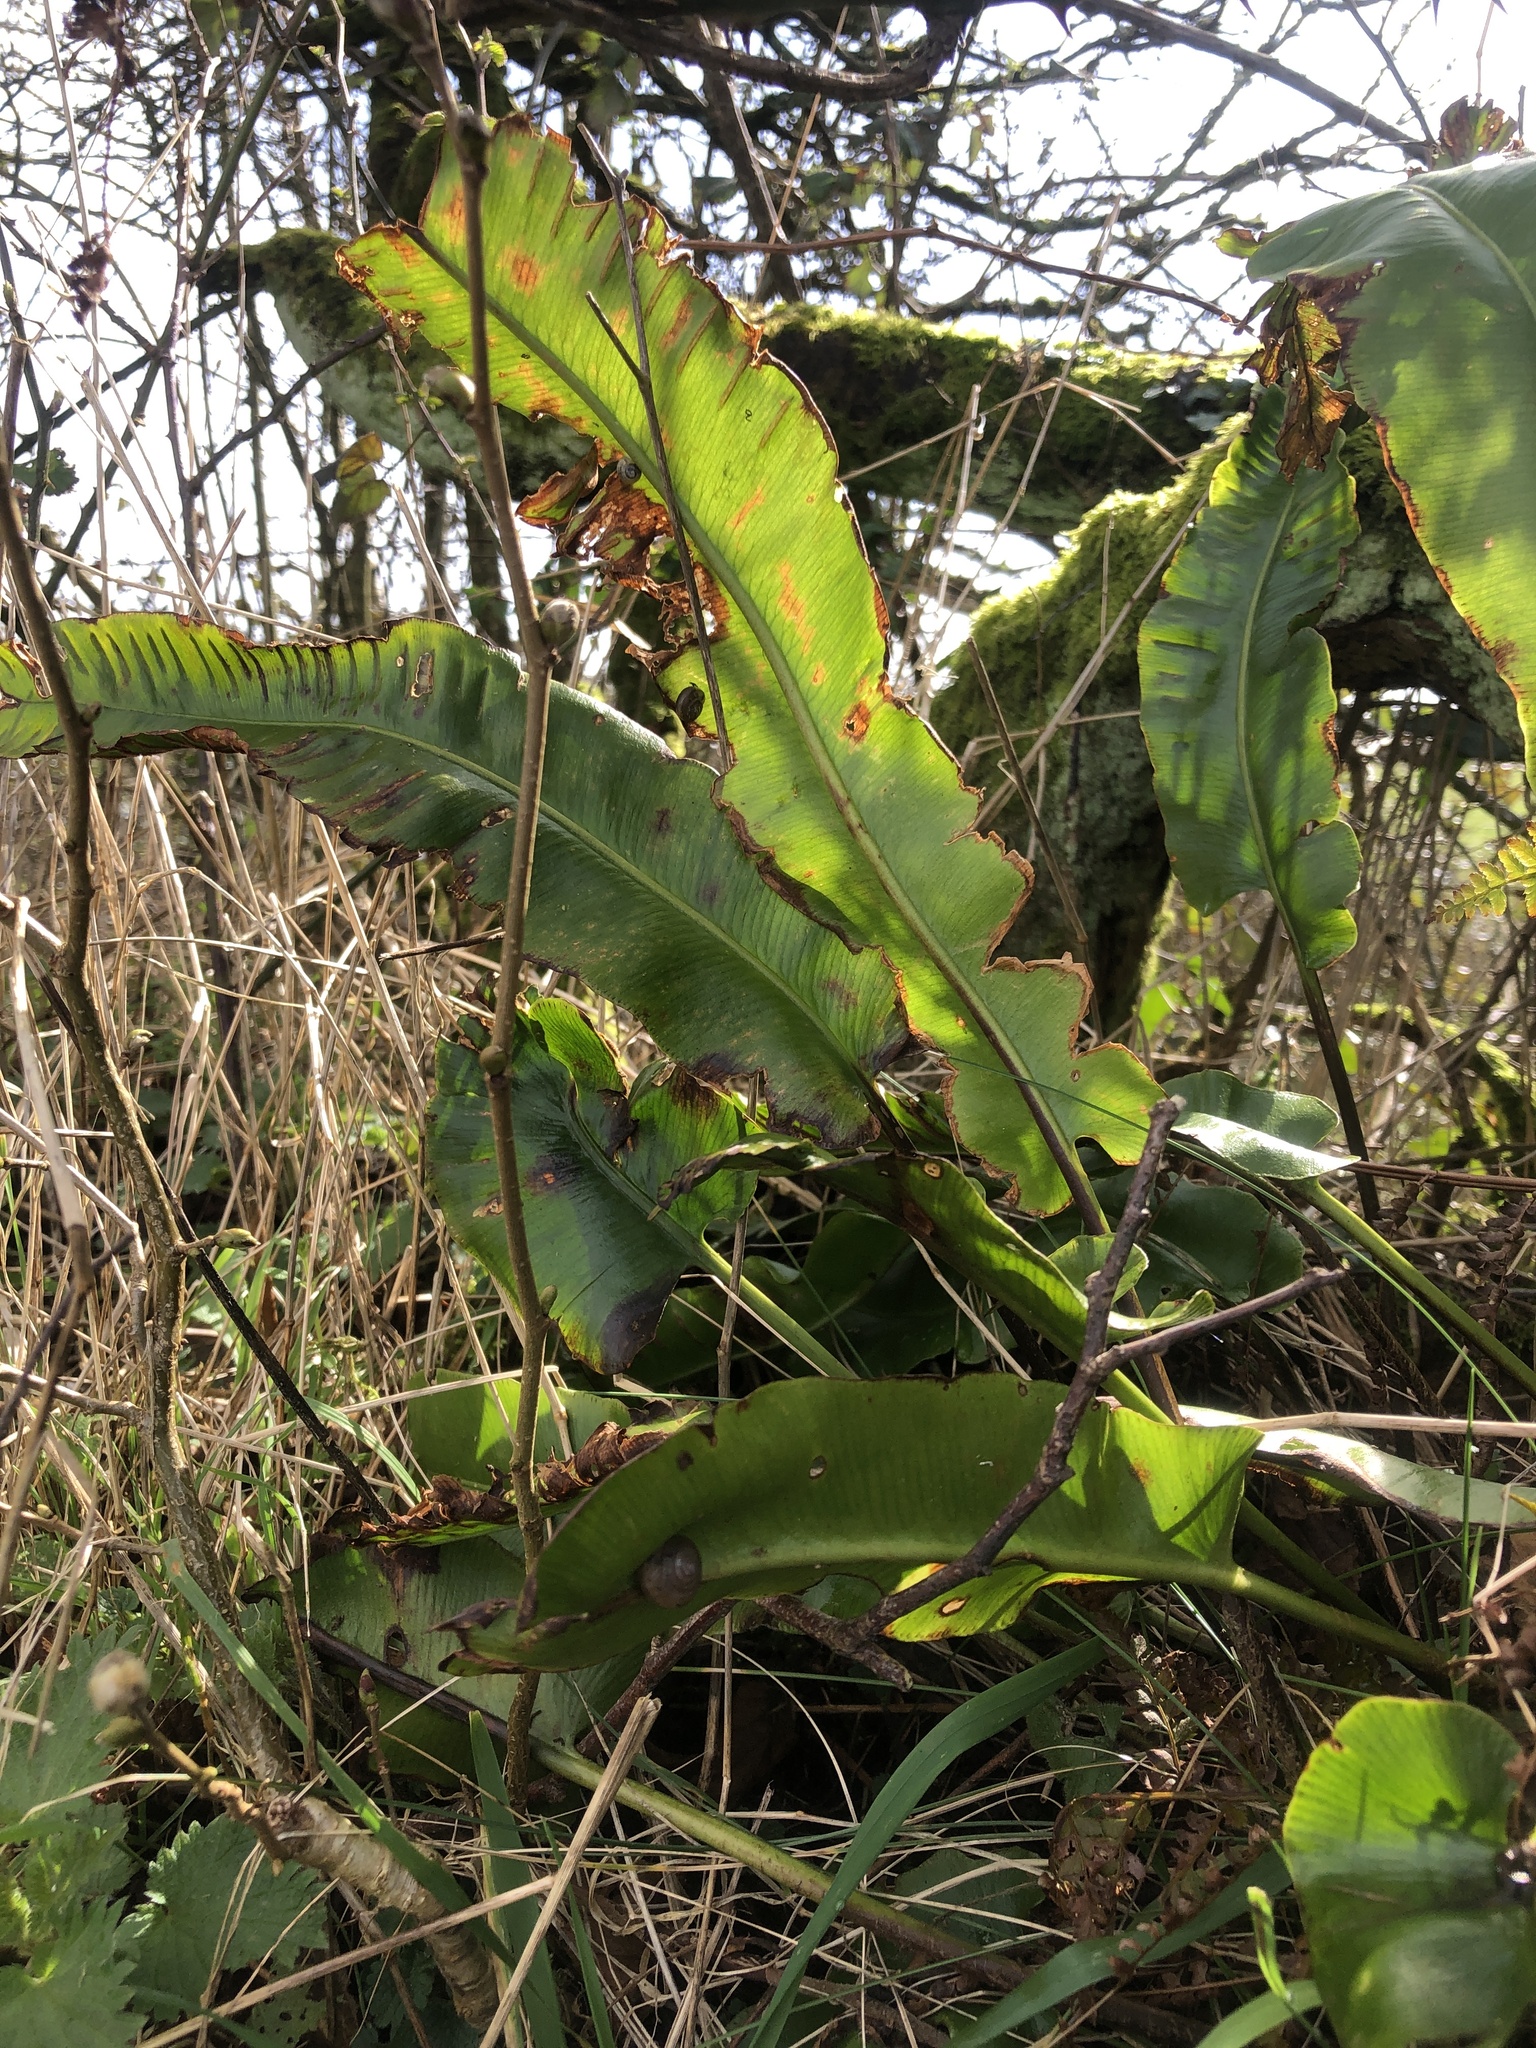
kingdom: Plantae
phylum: Tracheophyta
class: Polypodiopsida
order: Polypodiales
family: Aspleniaceae
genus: Asplenium
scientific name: Asplenium scolopendrium
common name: Hart's-tongue fern
